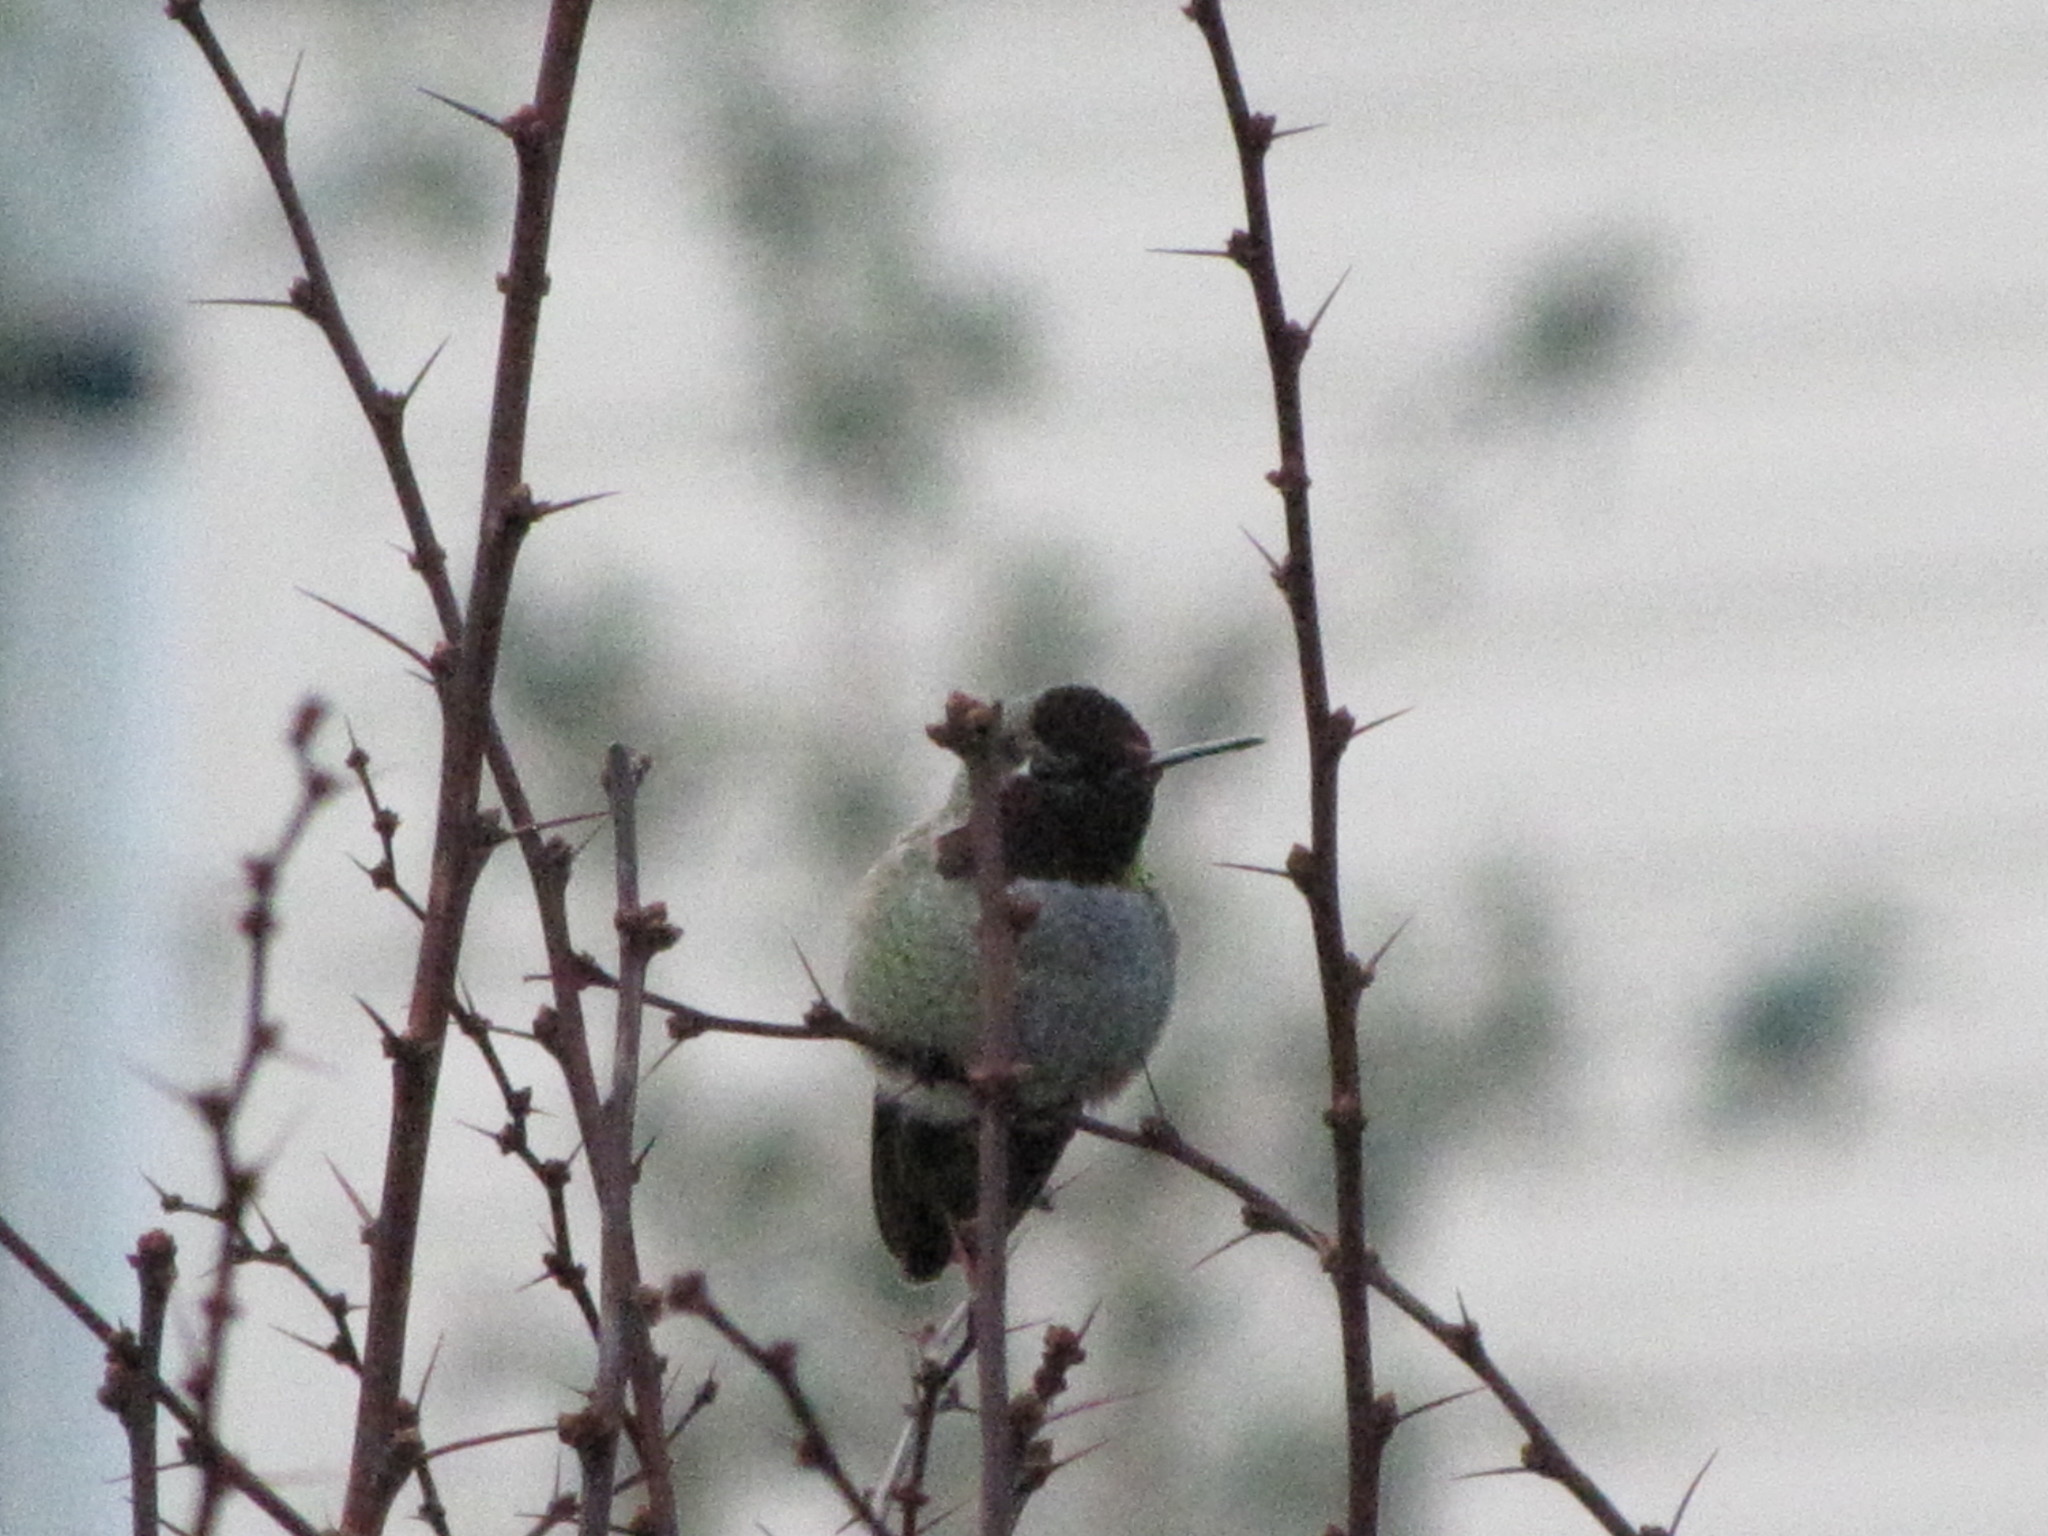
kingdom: Animalia
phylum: Chordata
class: Aves
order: Apodiformes
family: Trochilidae
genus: Calypte
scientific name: Calypte anna
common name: Anna's hummingbird
